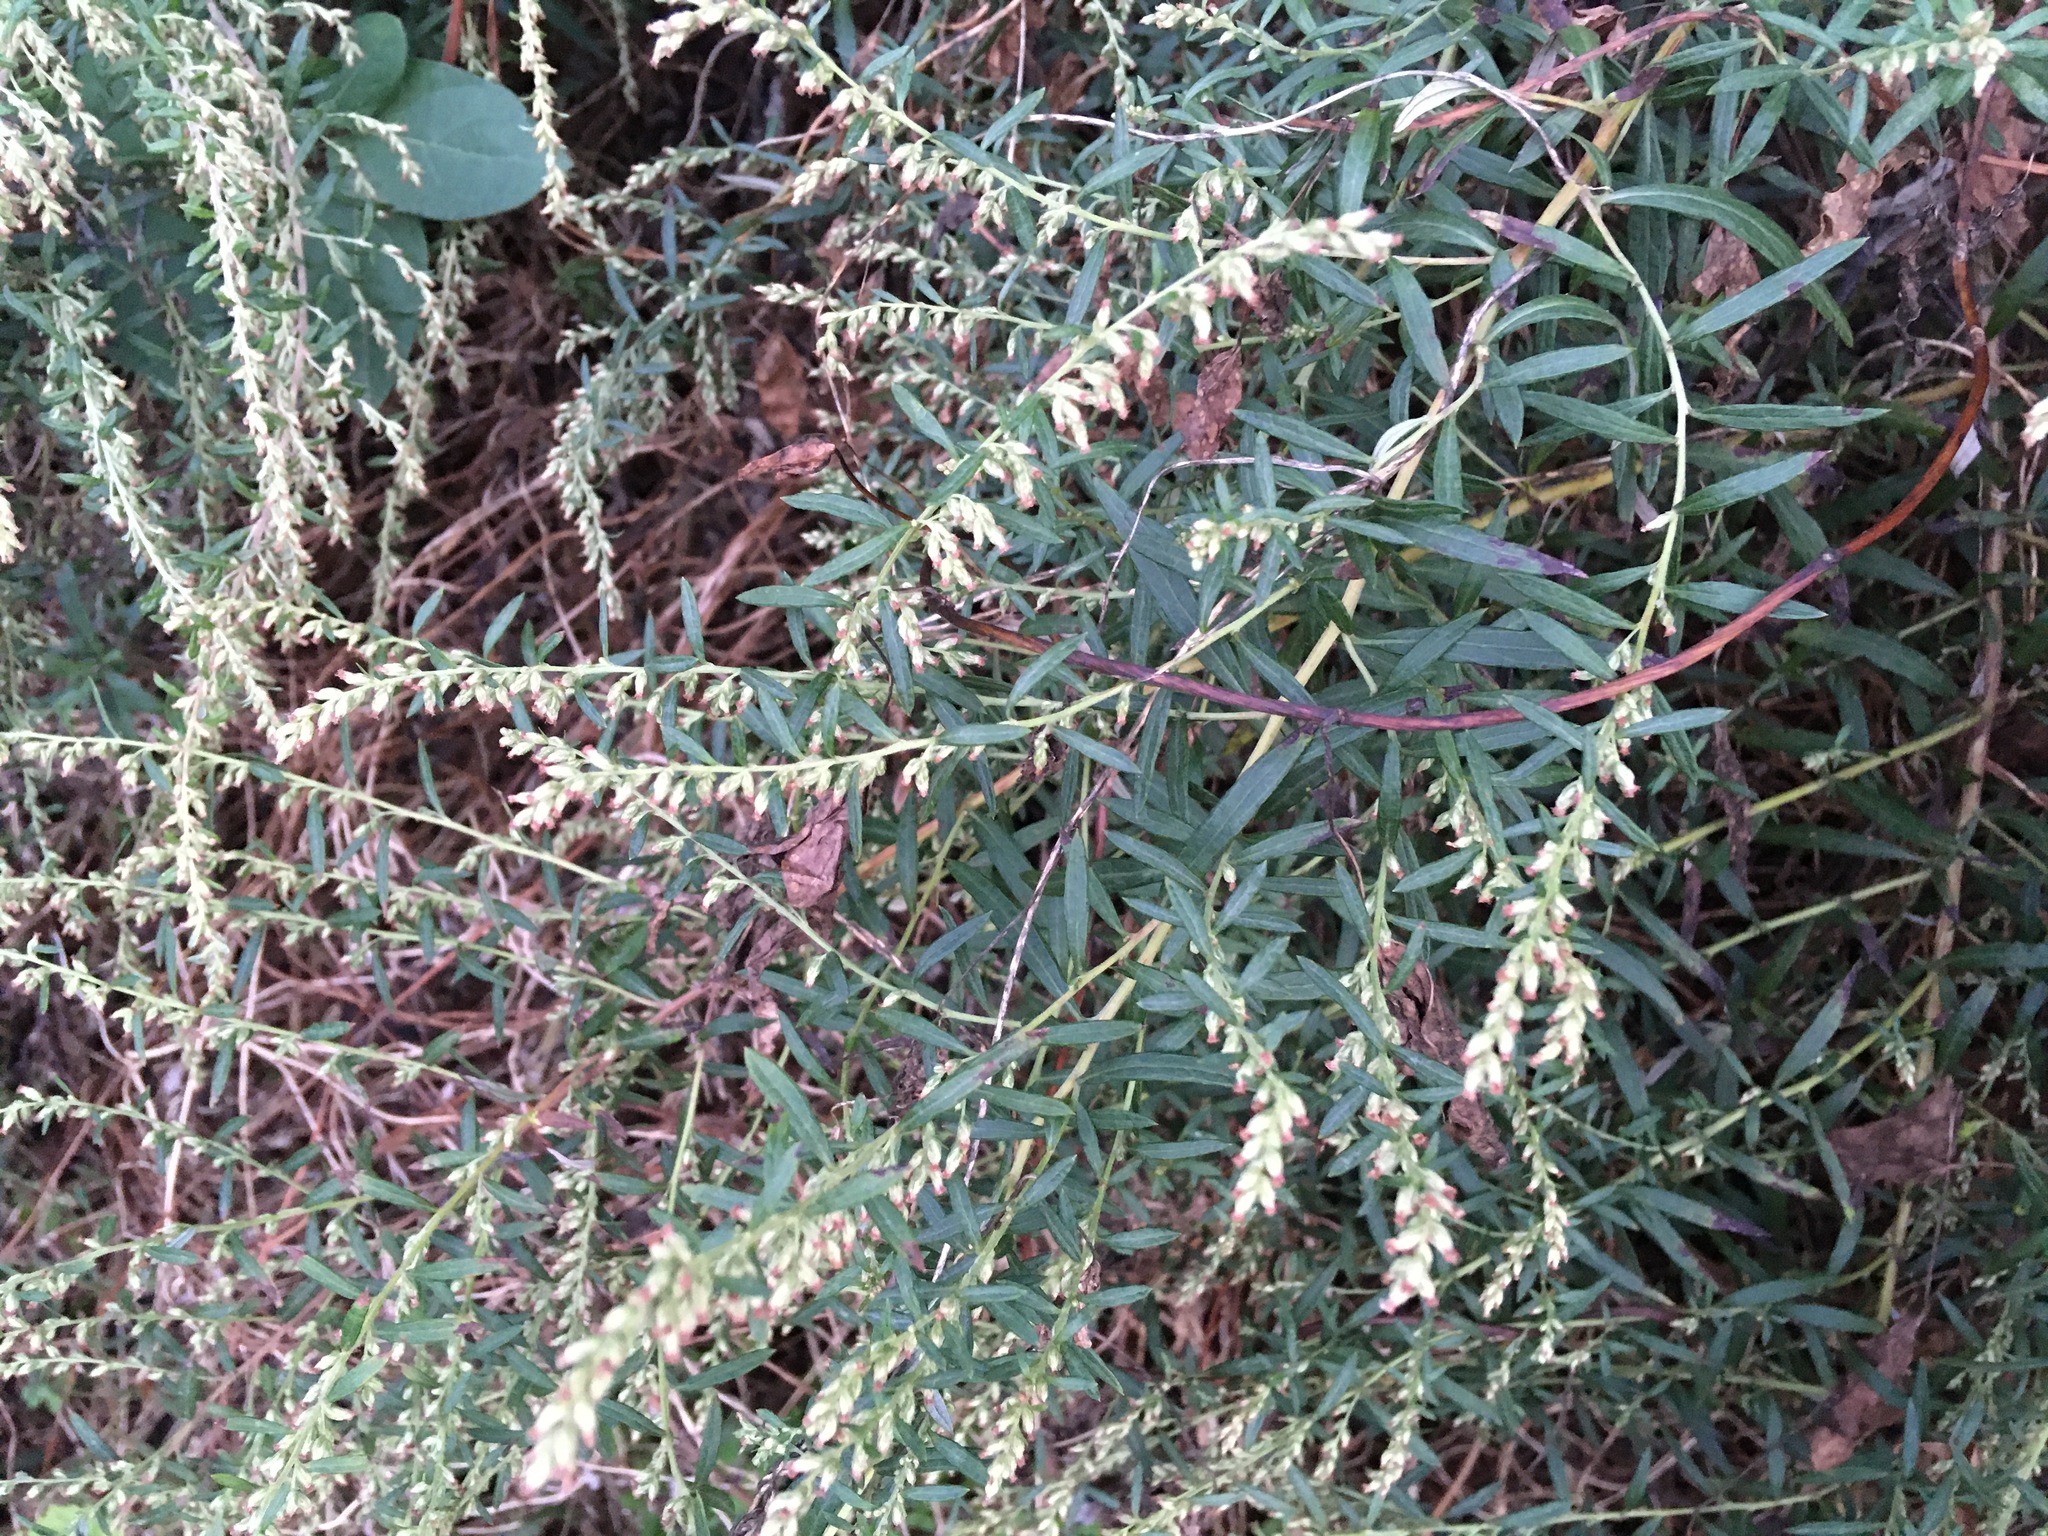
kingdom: Plantae
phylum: Tracheophyta
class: Magnoliopsida
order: Asterales
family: Asteraceae
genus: Artemisia
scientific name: Artemisia vulgaris
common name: Mugwort
